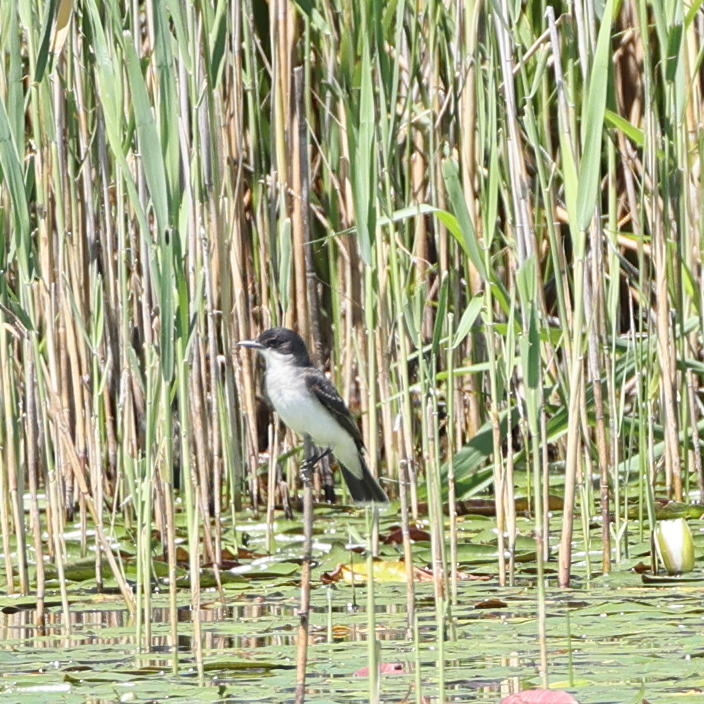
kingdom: Animalia
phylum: Chordata
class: Aves
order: Passeriformes
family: Tyrannidae
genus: Tyrannus
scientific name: Tyrannus tyrannus
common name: Eastern kingbird
